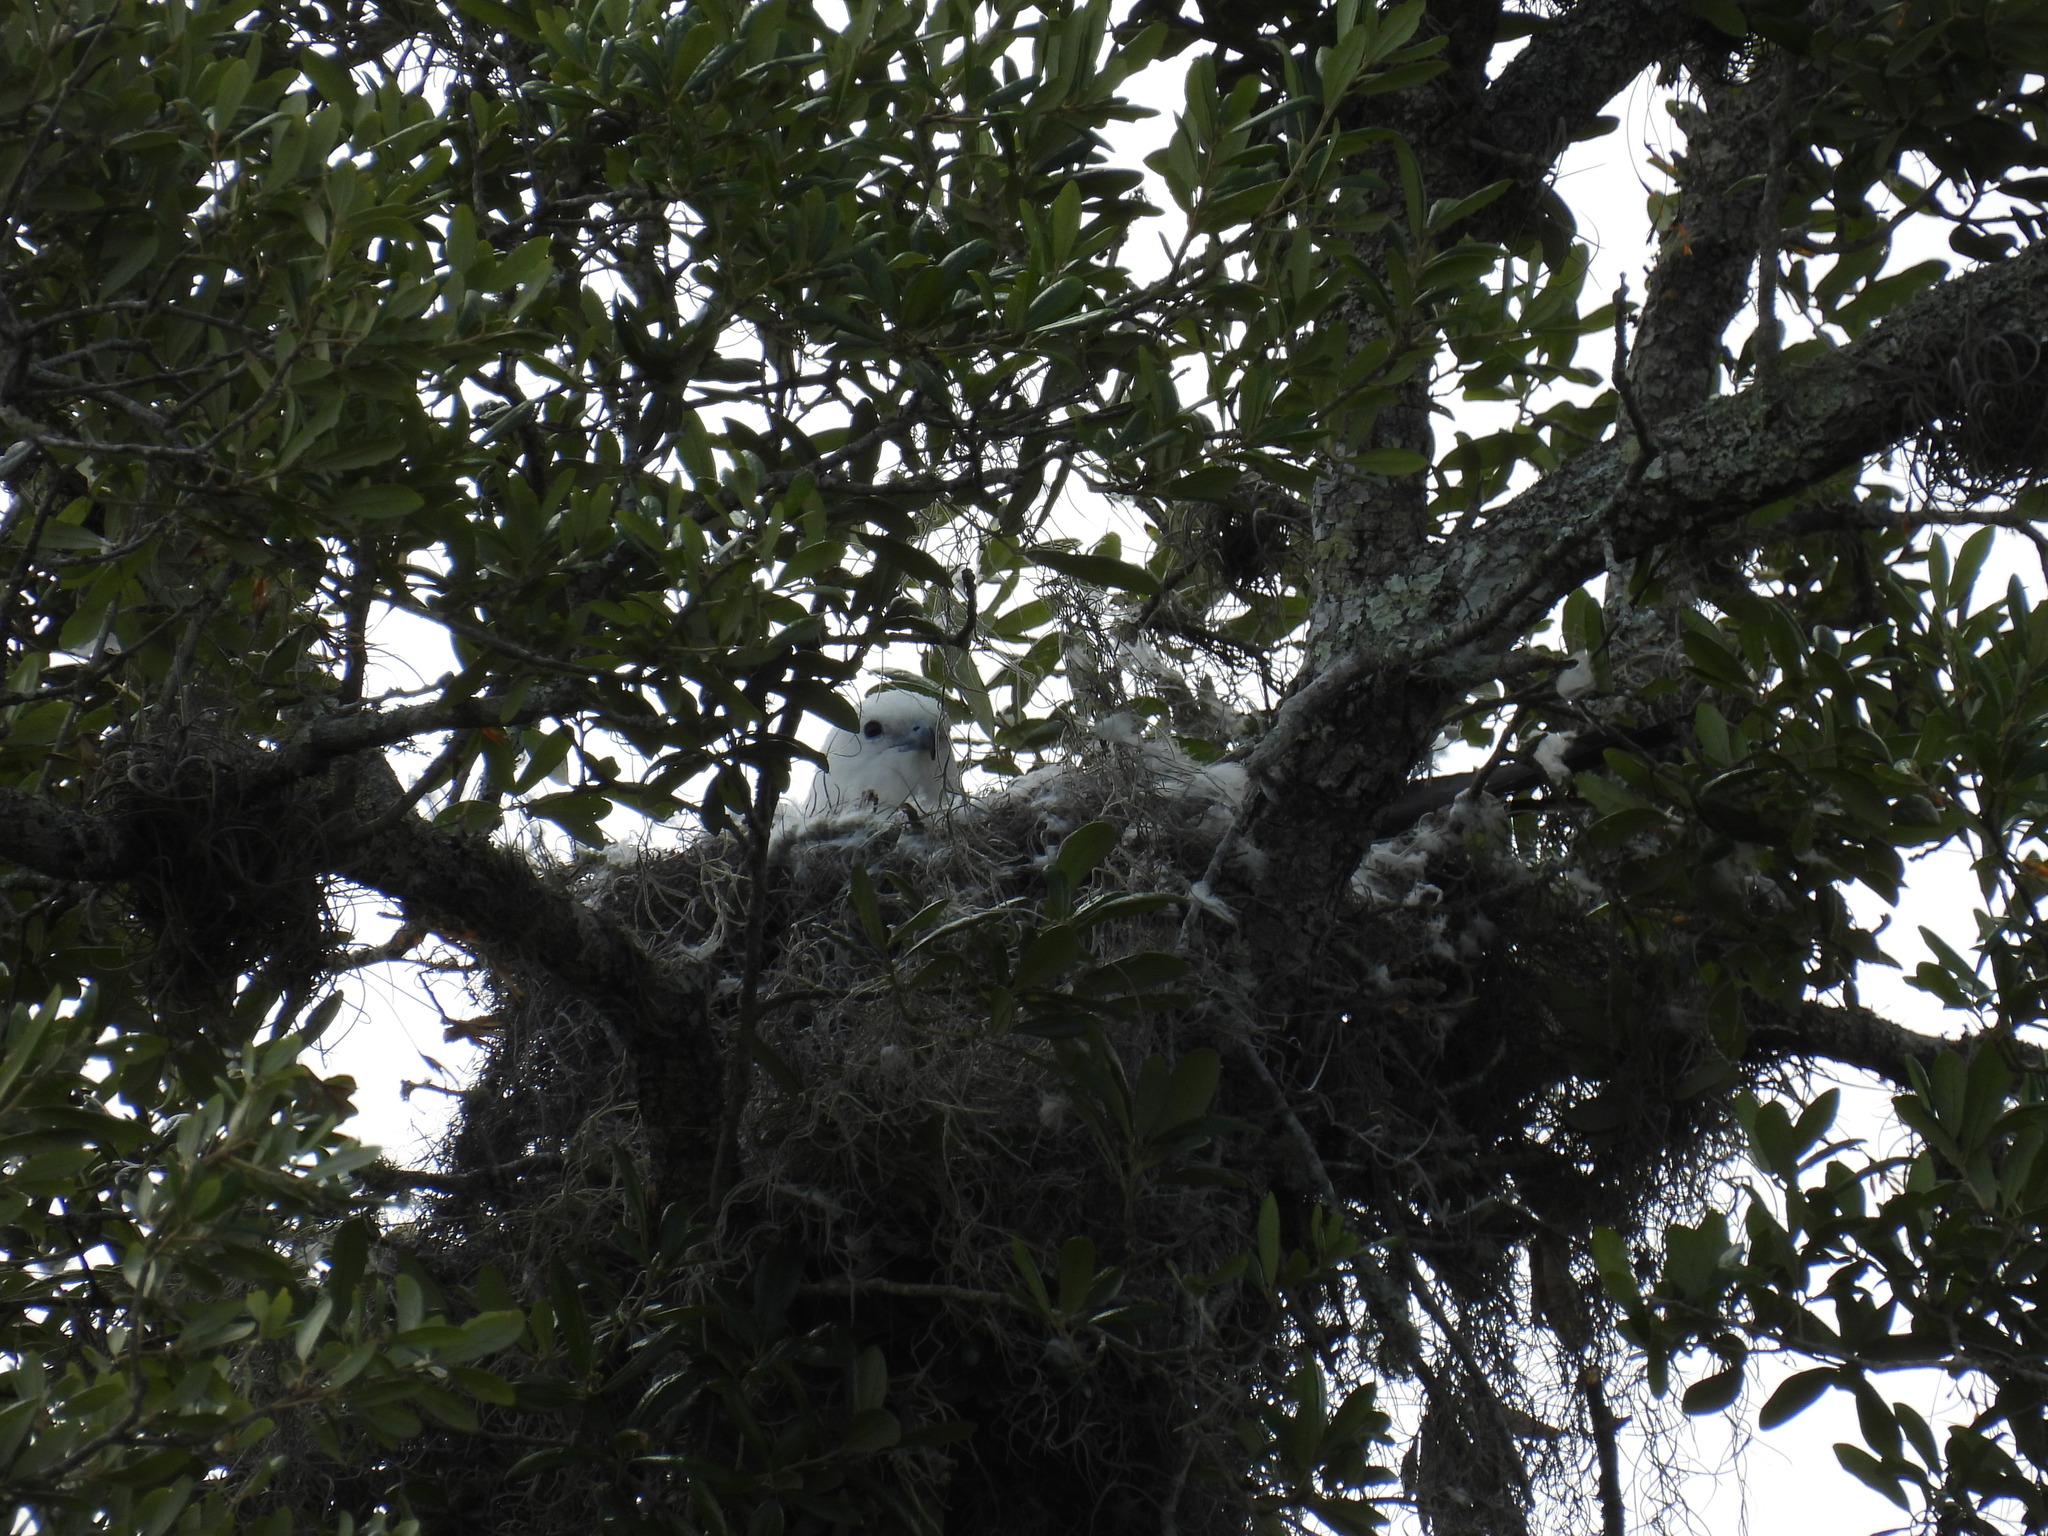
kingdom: Animalia
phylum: Chordata
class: Aves
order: Accipitriformes
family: Accipitridae
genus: Elanoides
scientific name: Elanoides forficatus
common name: Swallow-tailed kite
